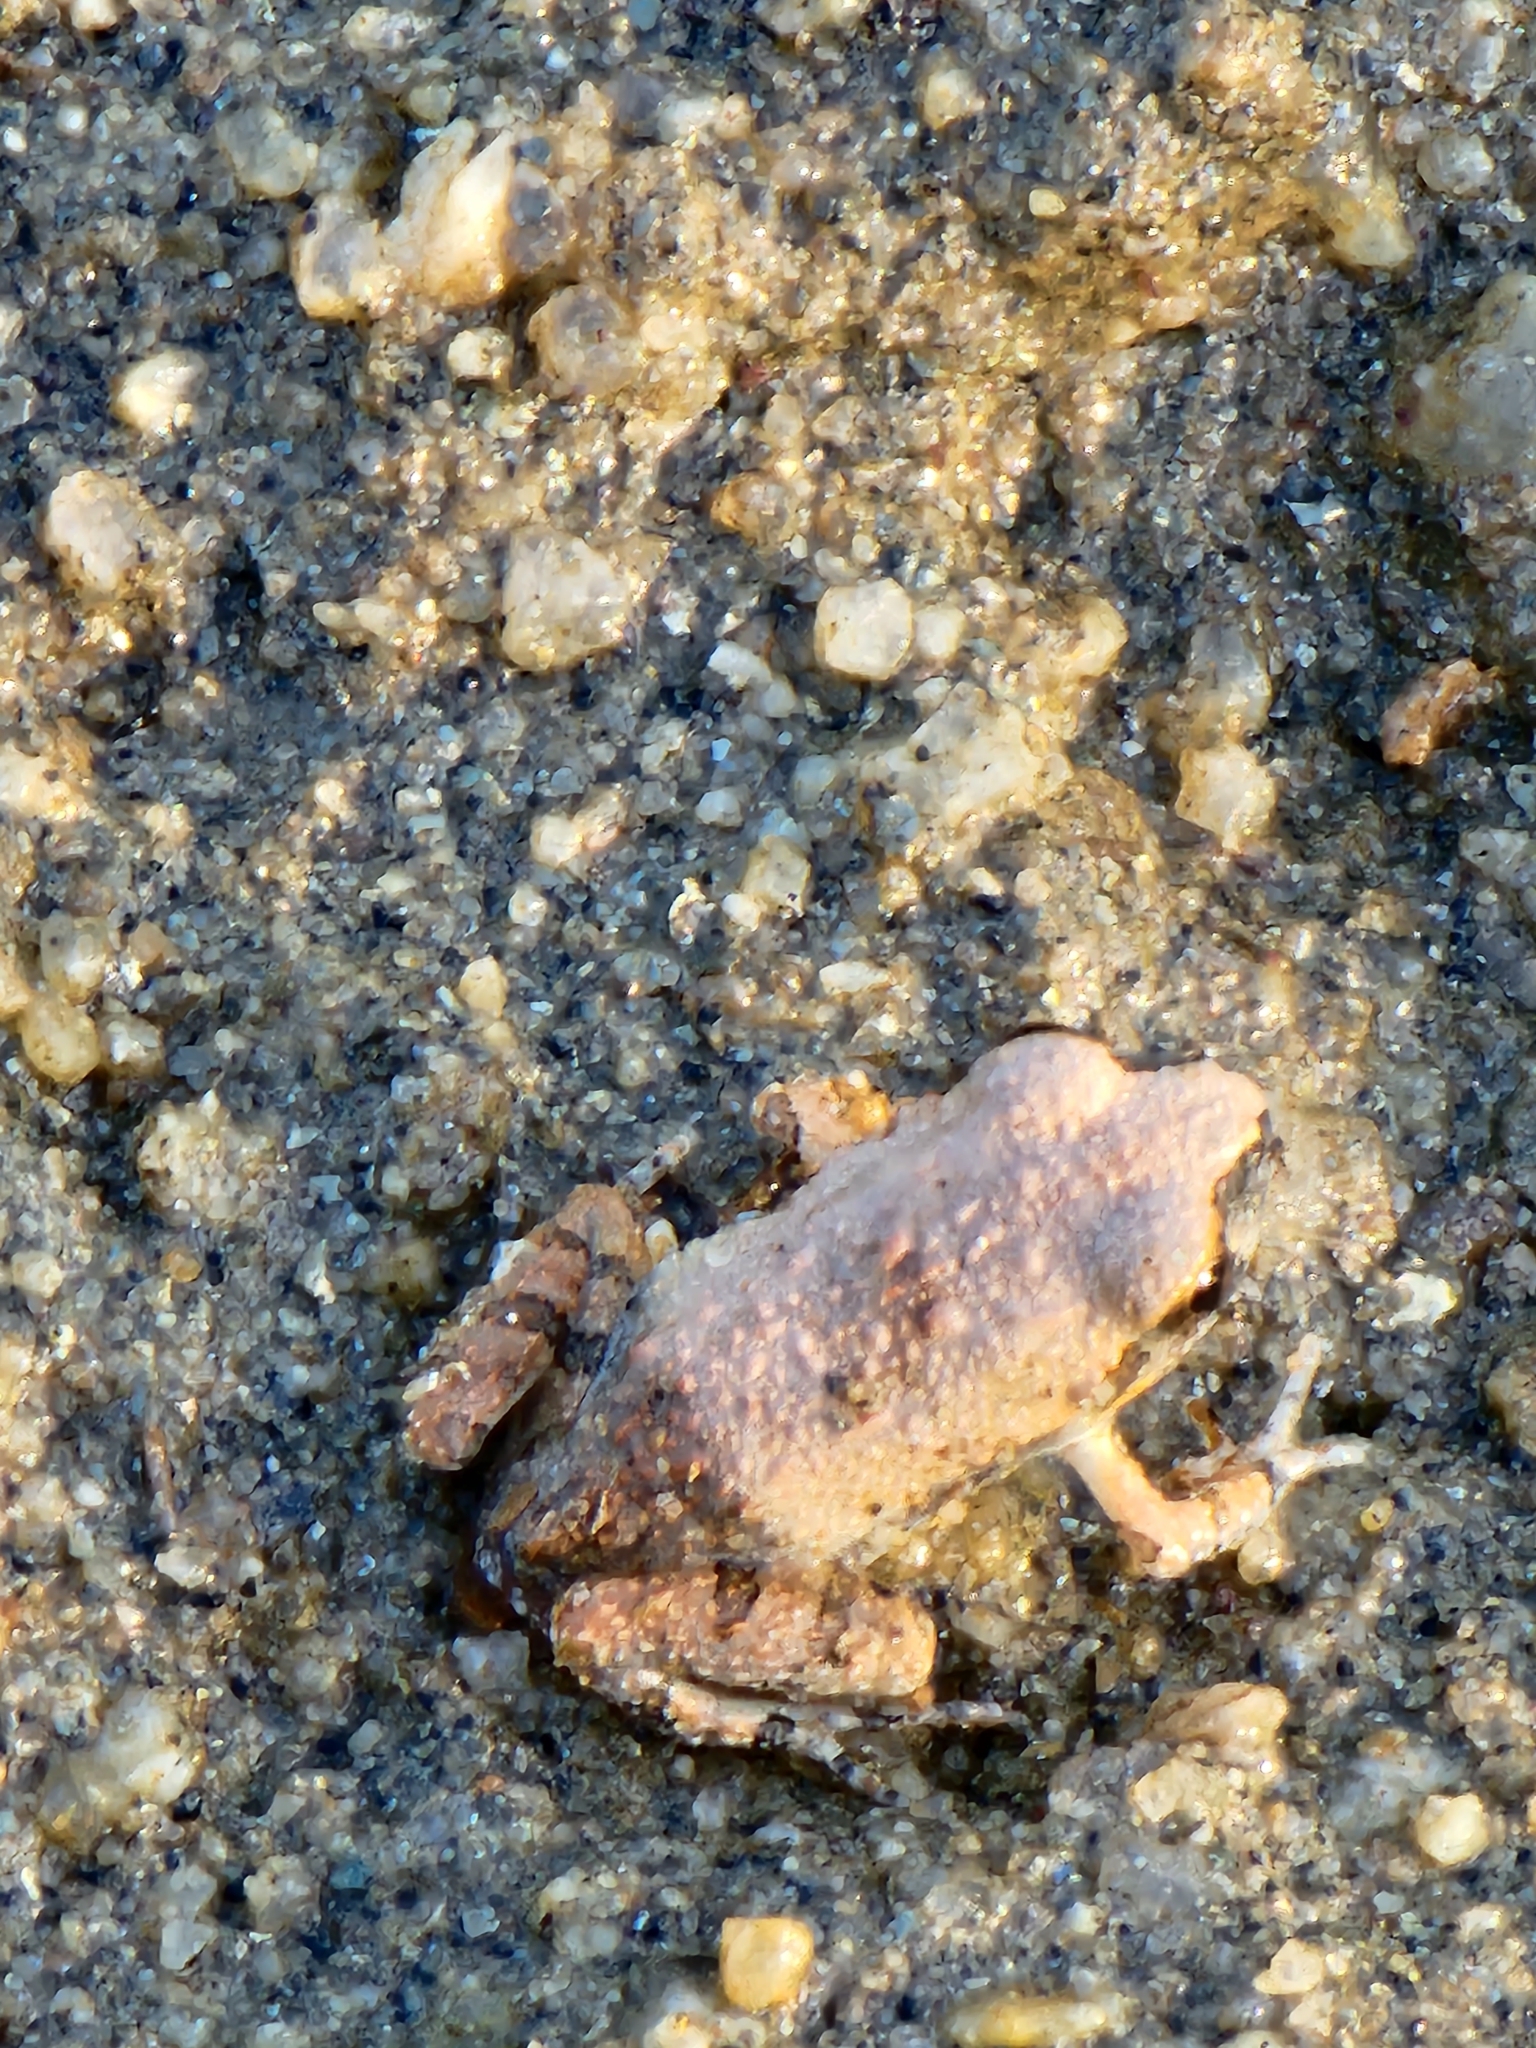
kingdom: Animalia
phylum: Chordata
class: Amphibia
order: Anura
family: Limnodynastidae
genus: Platyplectrum
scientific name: Platyplectrum ornatum
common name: Ornate burrowing frog
